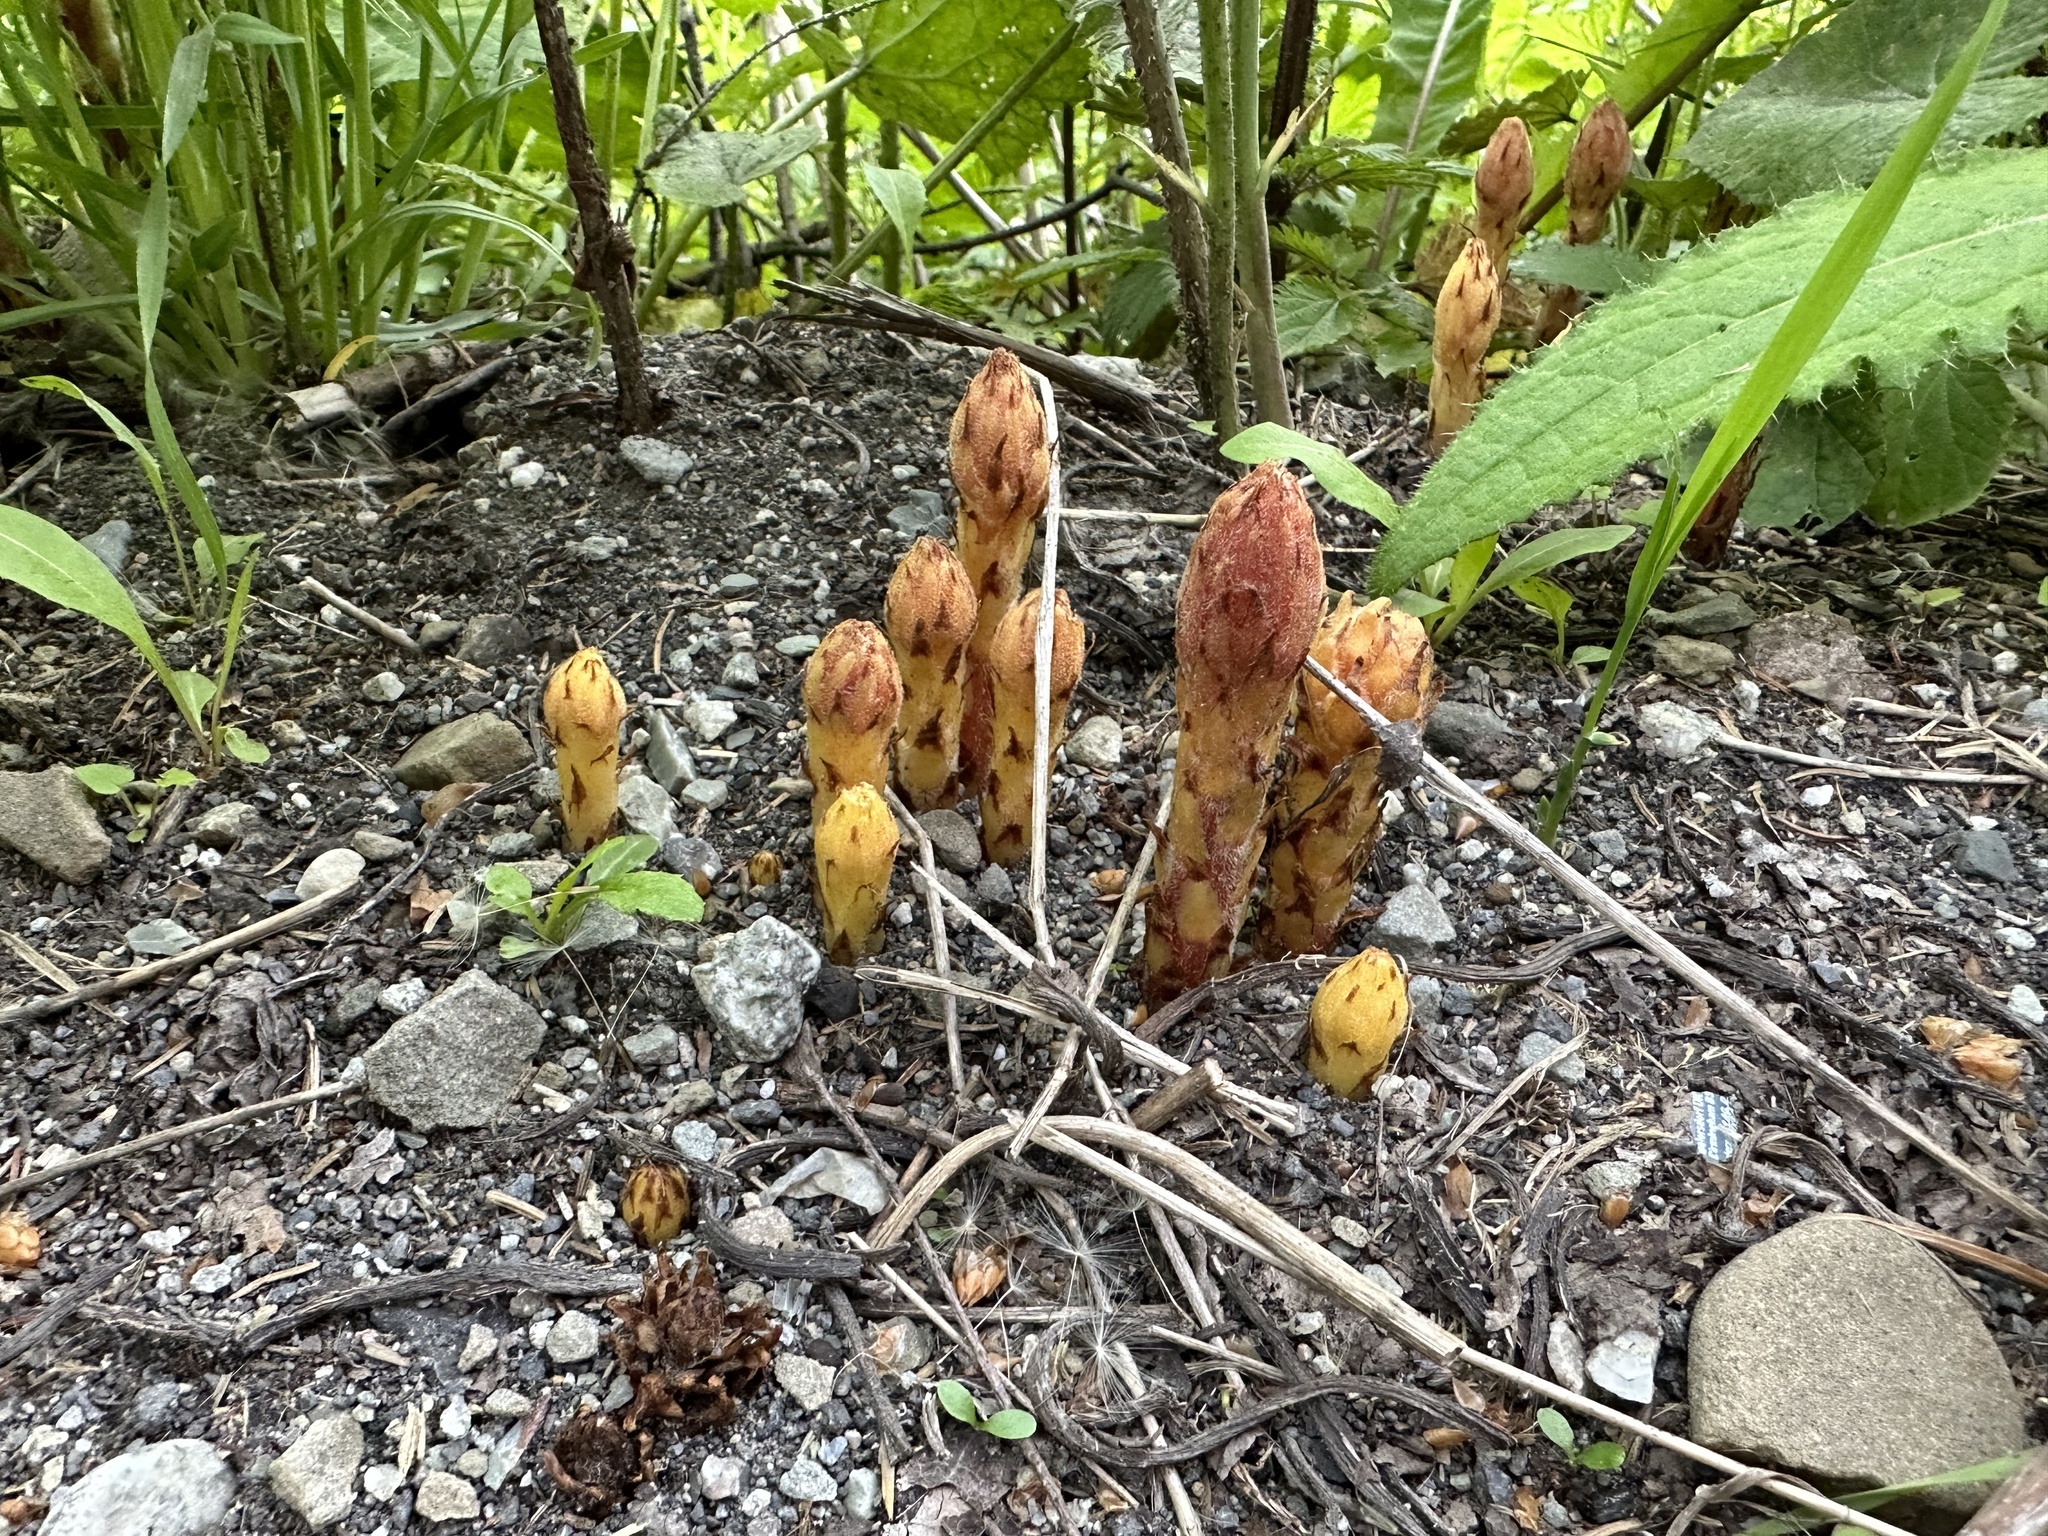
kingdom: Plantae
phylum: Tracheophyta
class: Magnoliopsida
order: Lamiales
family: Orobanchaceae
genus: Orobanche
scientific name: Orobanche flava
